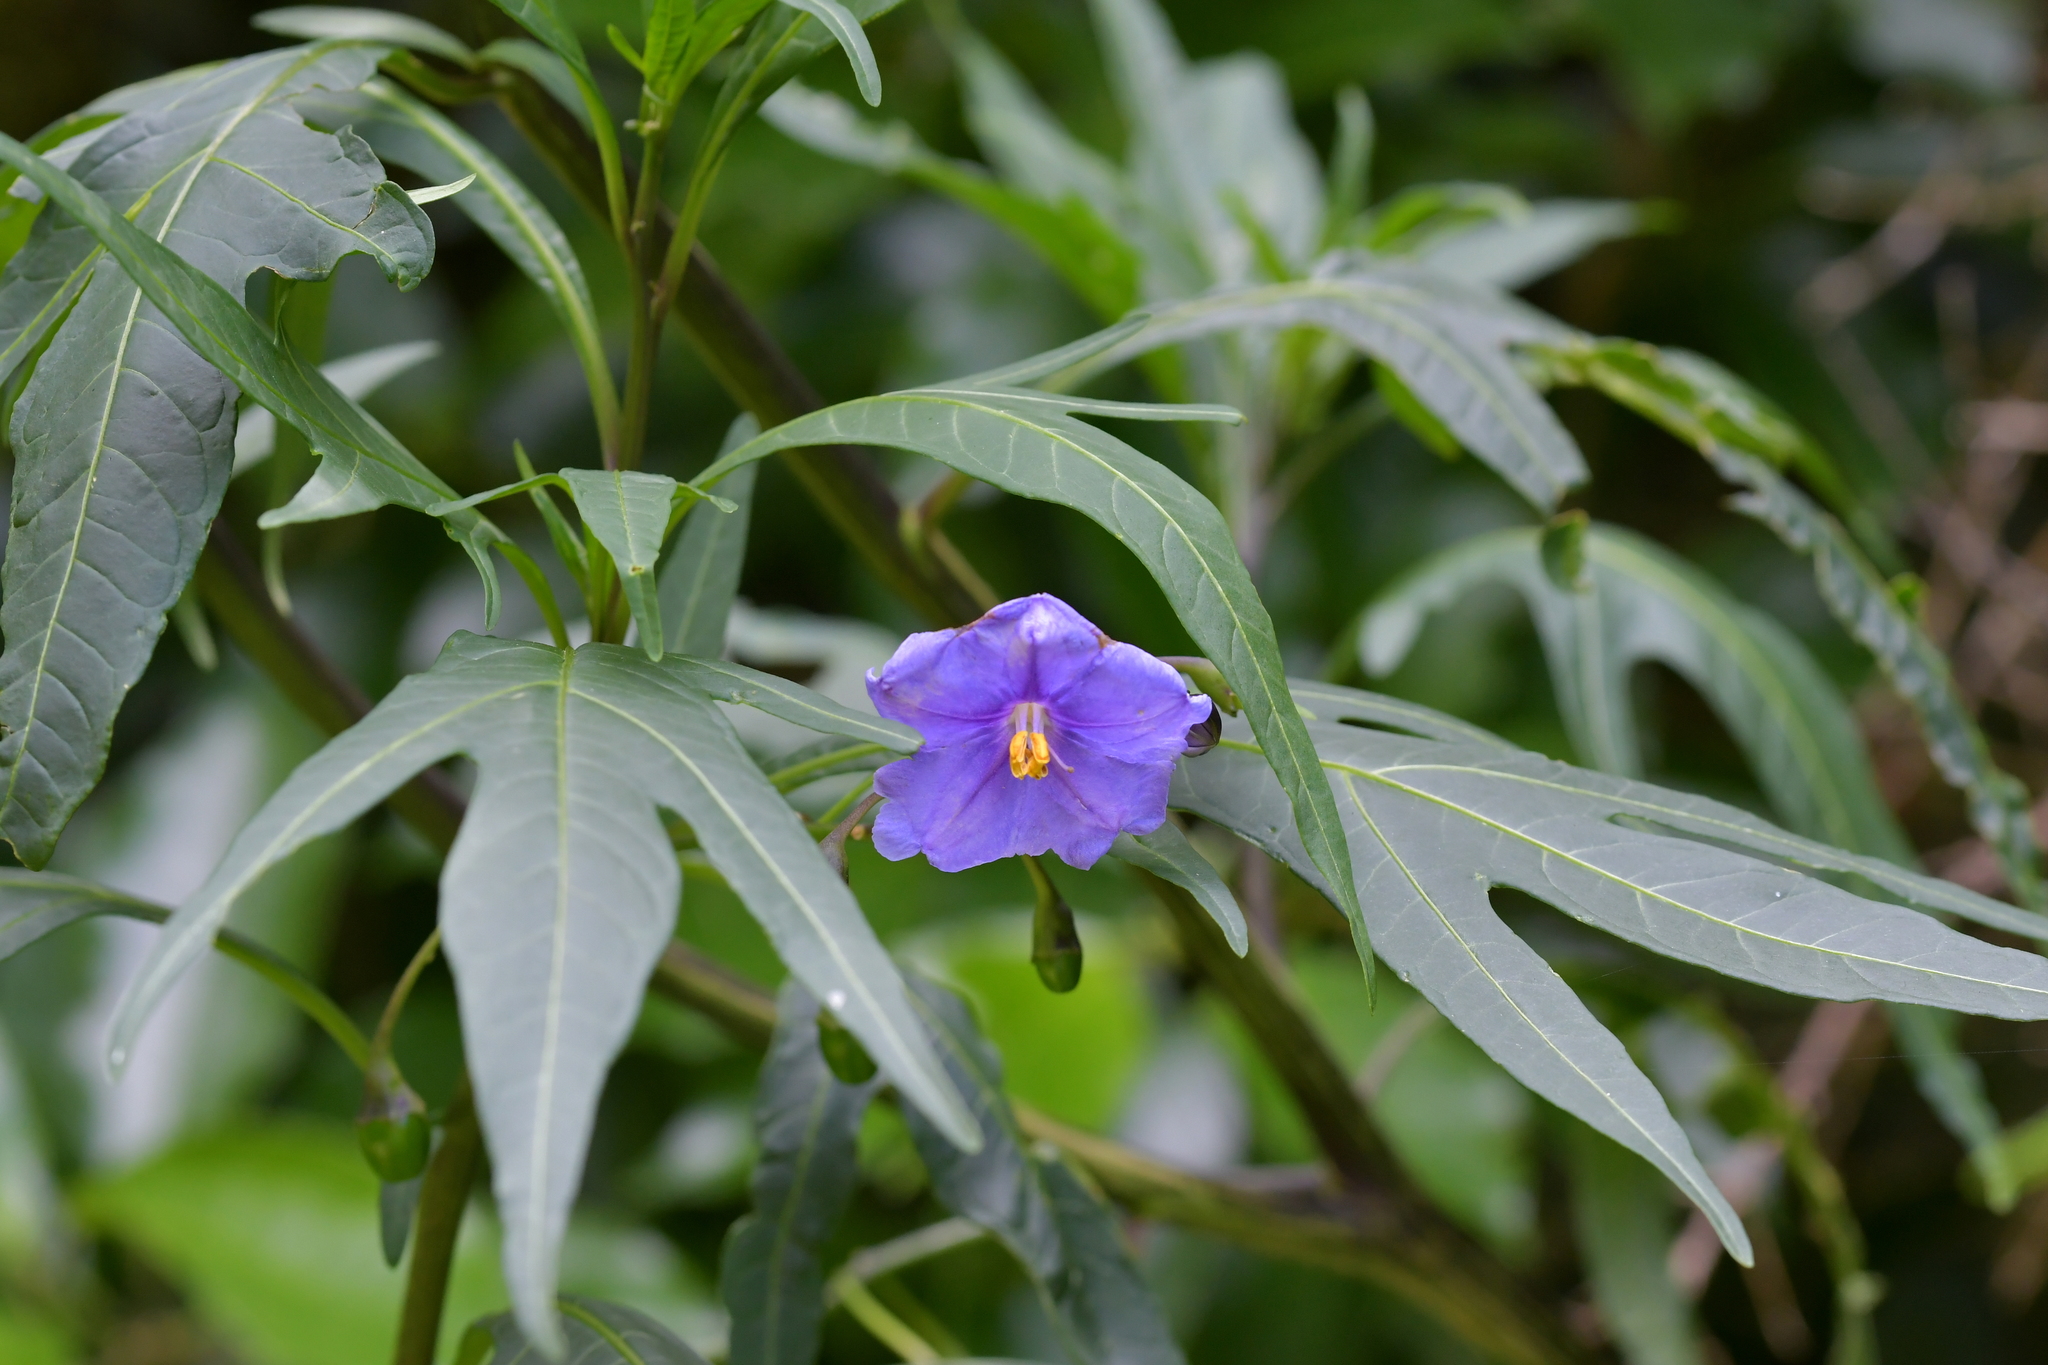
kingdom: Plantae
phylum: Tracheophyta
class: Magnoliopsida
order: Solanales
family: Solanaceae
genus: Solanum
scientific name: Solanum laciniatum
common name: Kangaroo-apple
